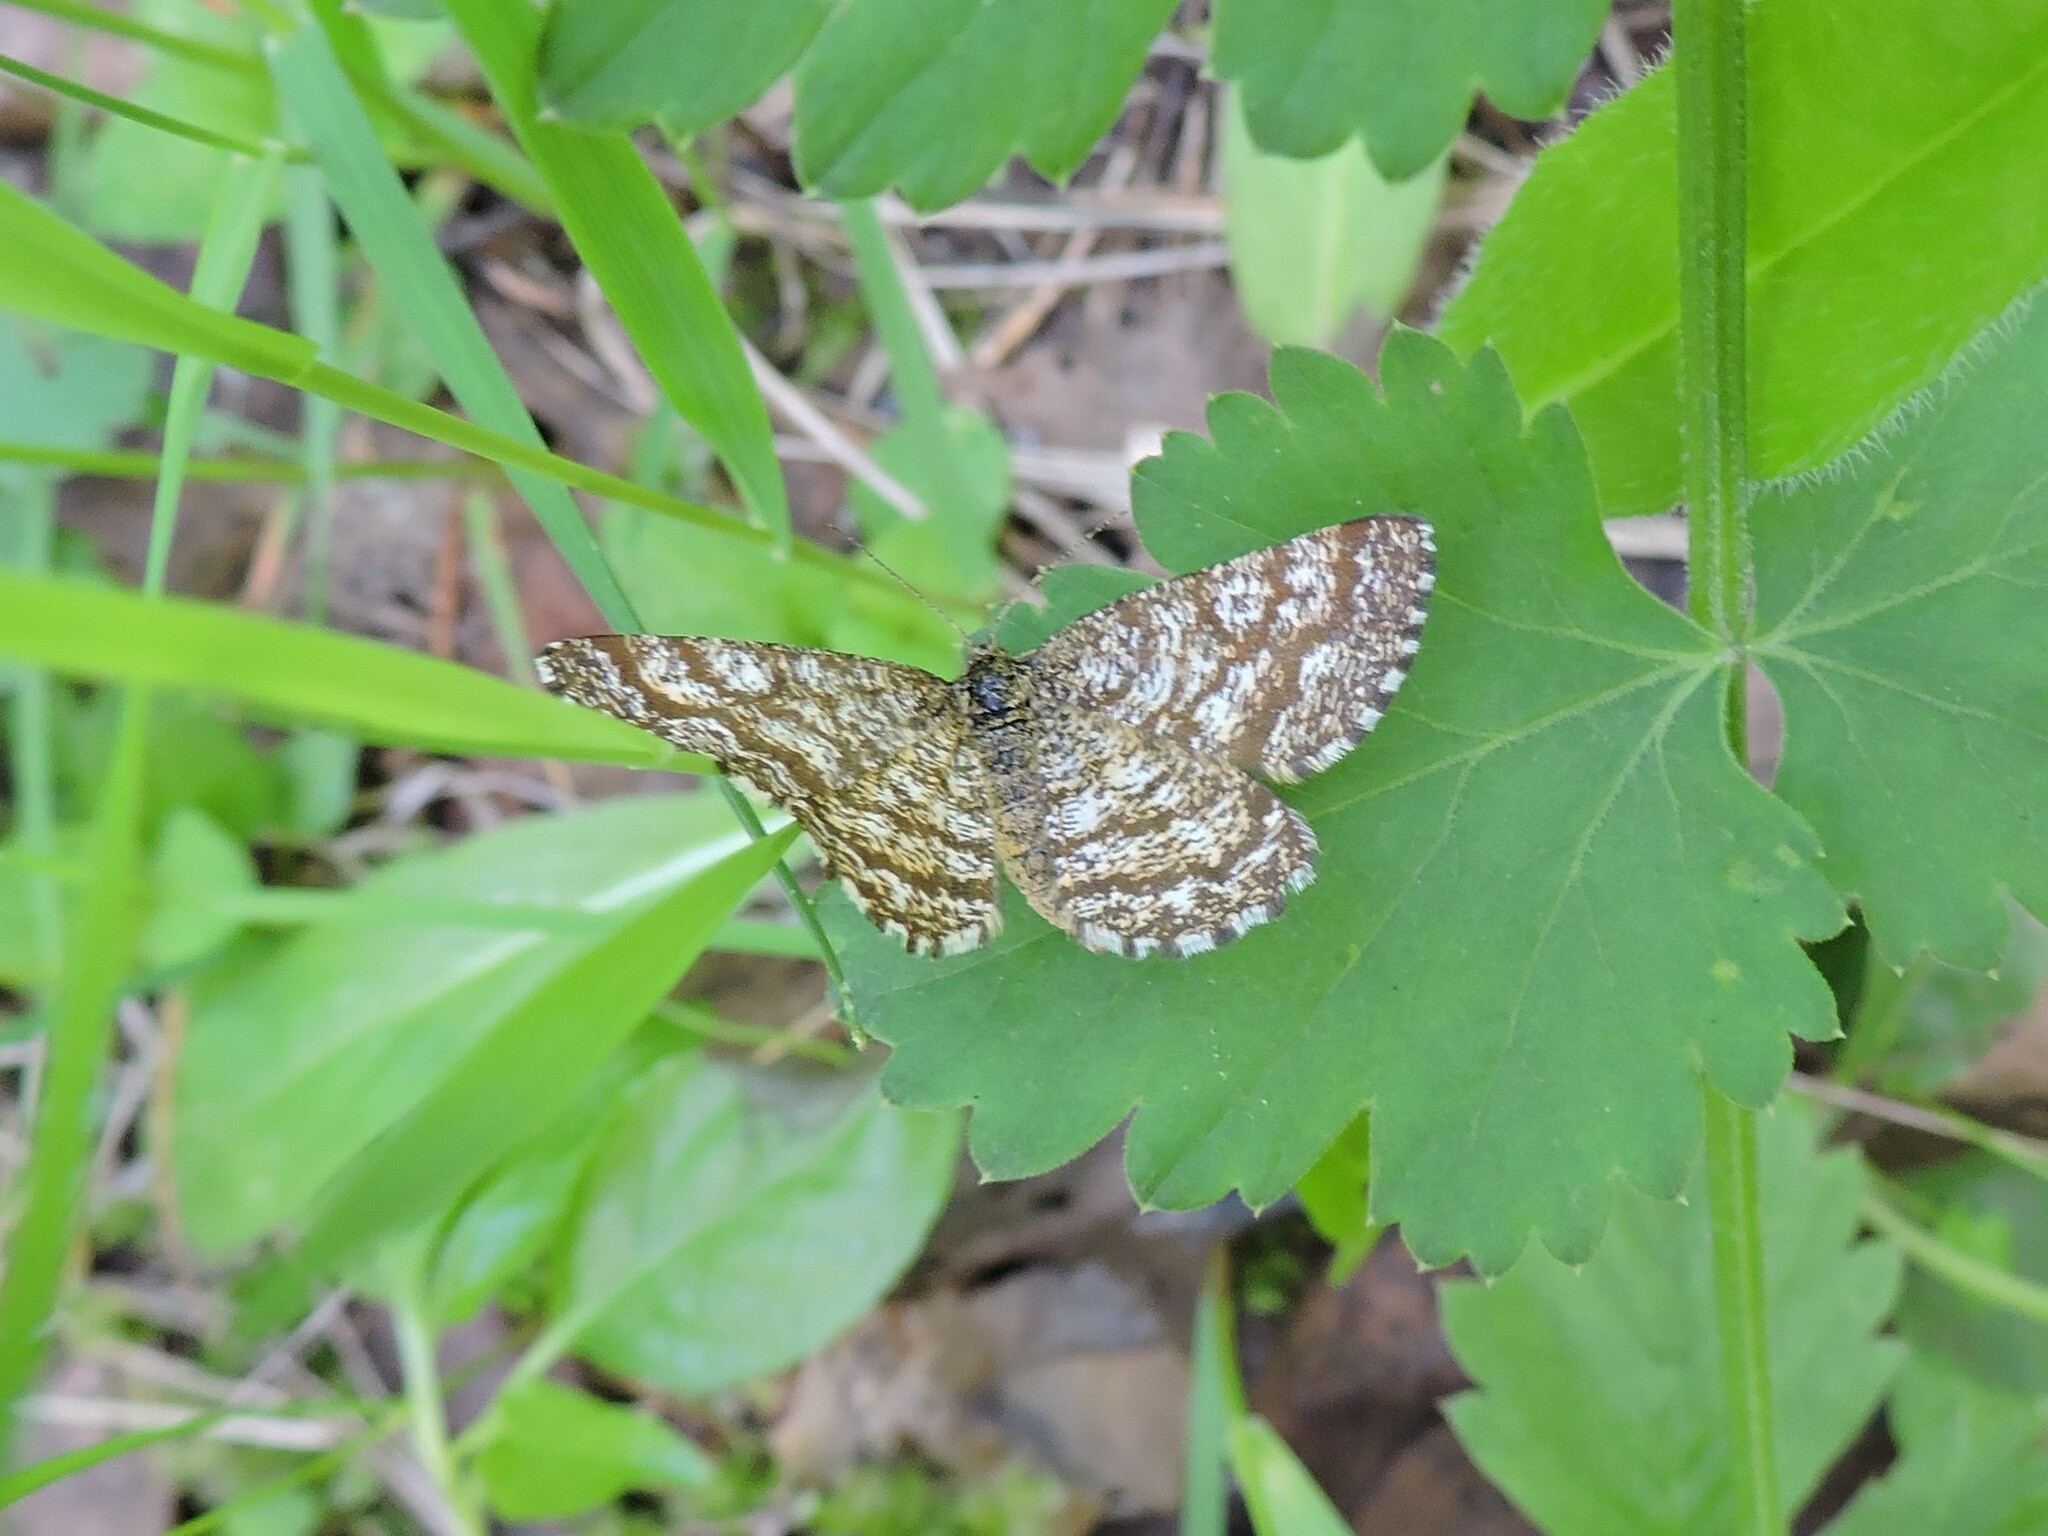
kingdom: Animalia
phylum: Arthropoda
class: Insecta
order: Lepidoptera
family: Geometridae
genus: Ematurga
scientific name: Ematurga atomaria
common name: Common heath
